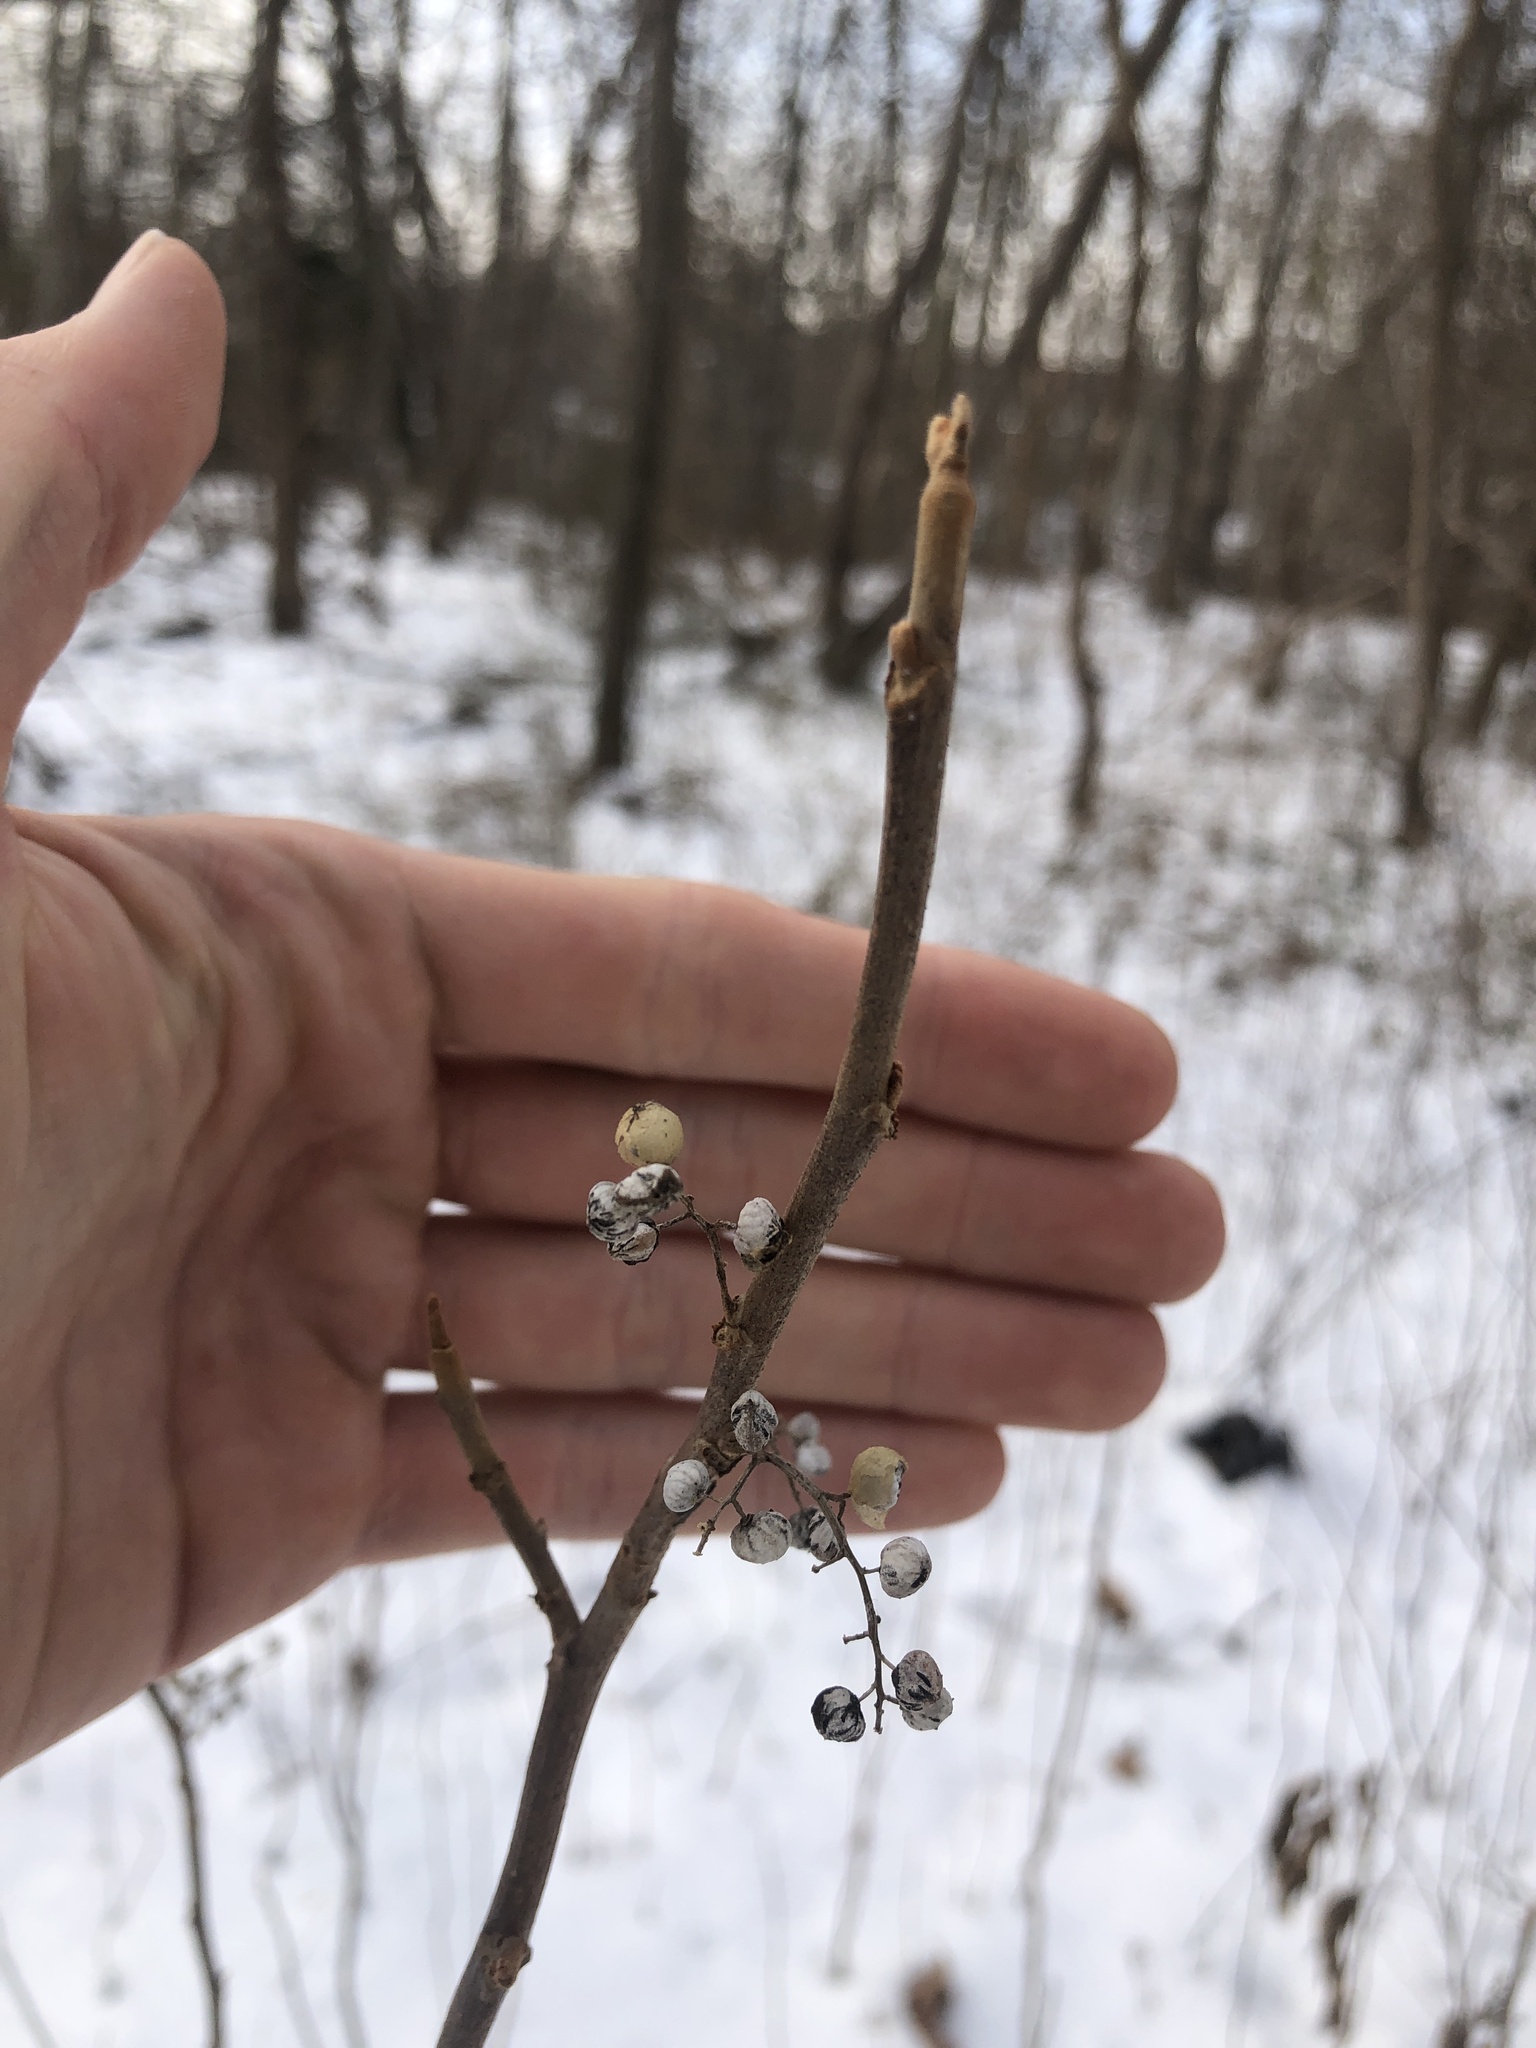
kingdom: Plantae
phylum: Tracheophyta
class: Magnoliopsida
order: Sapindales
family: Anacardiaceae
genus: Toxicodendron
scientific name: Toxicodendron radicans
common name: Poison ivy
